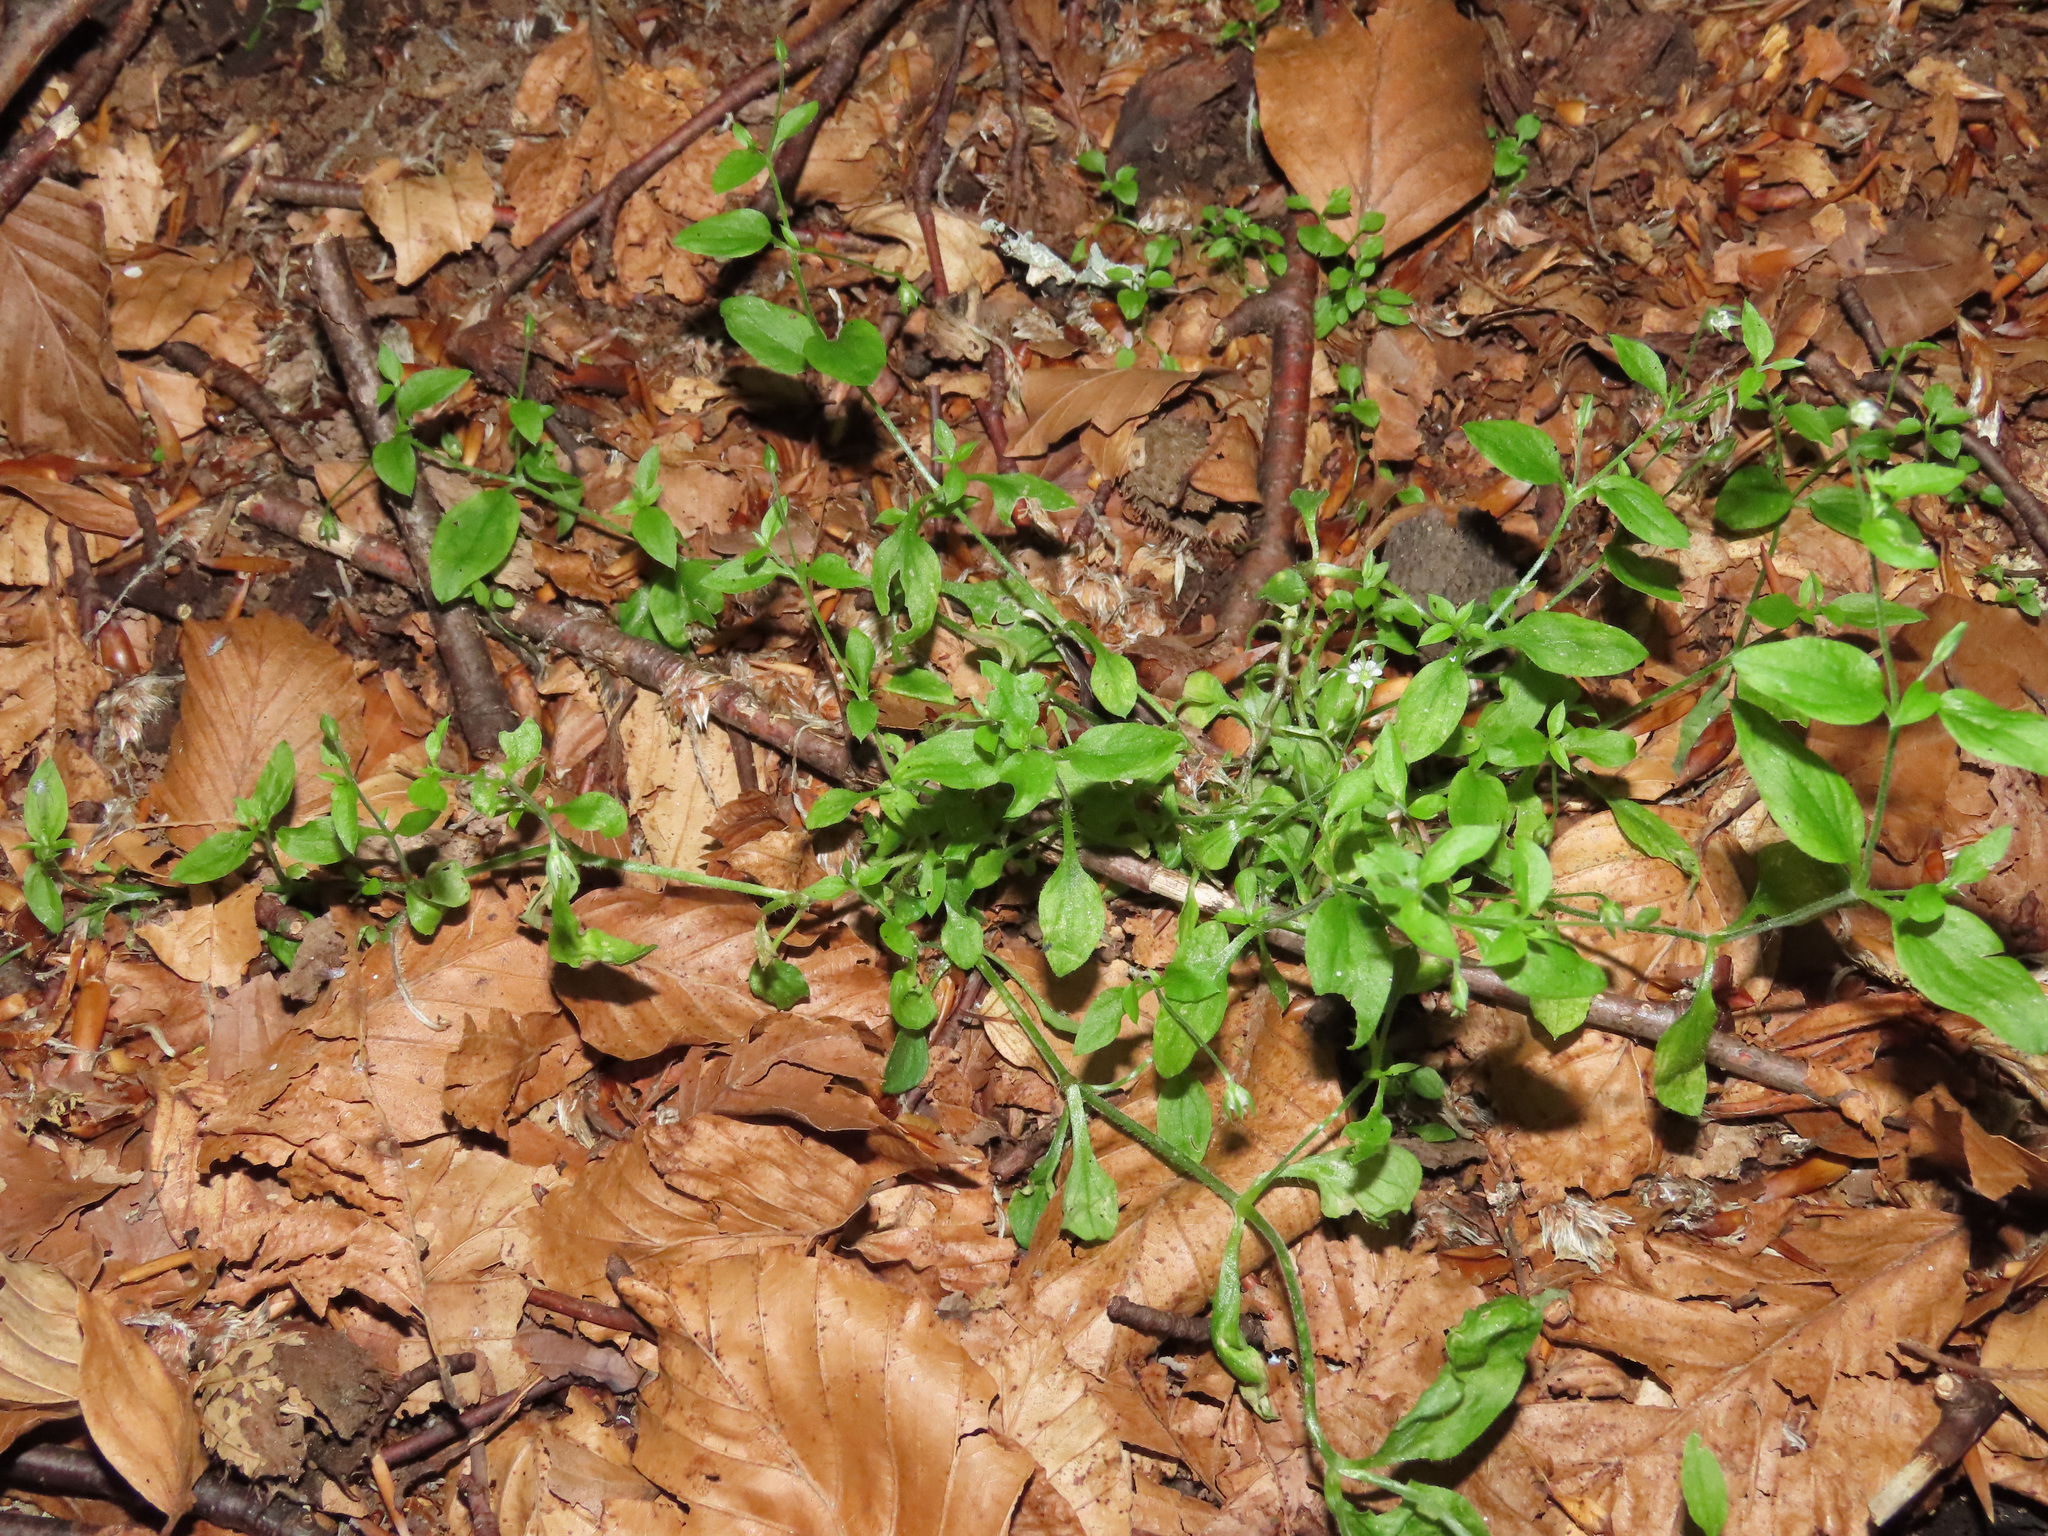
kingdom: Plantae
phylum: Tracheophyta
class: Magnoliopsida
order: Caryophyllales
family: Caryophyllaceae
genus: Moehringia
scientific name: Moehringia trinervia
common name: Three-nerved sandwort
